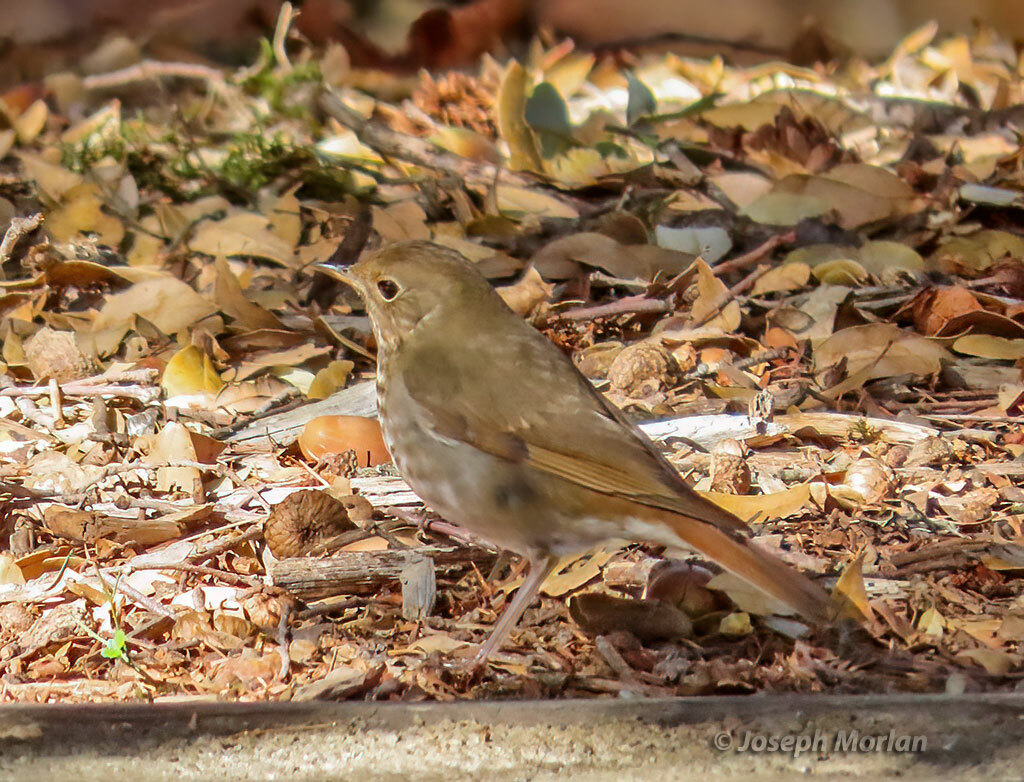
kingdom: Animalia
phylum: Chordata
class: Aves
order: Passeriformes
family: Turdidae
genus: Catharus
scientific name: Catharus guttatus
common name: Hermit thrush
